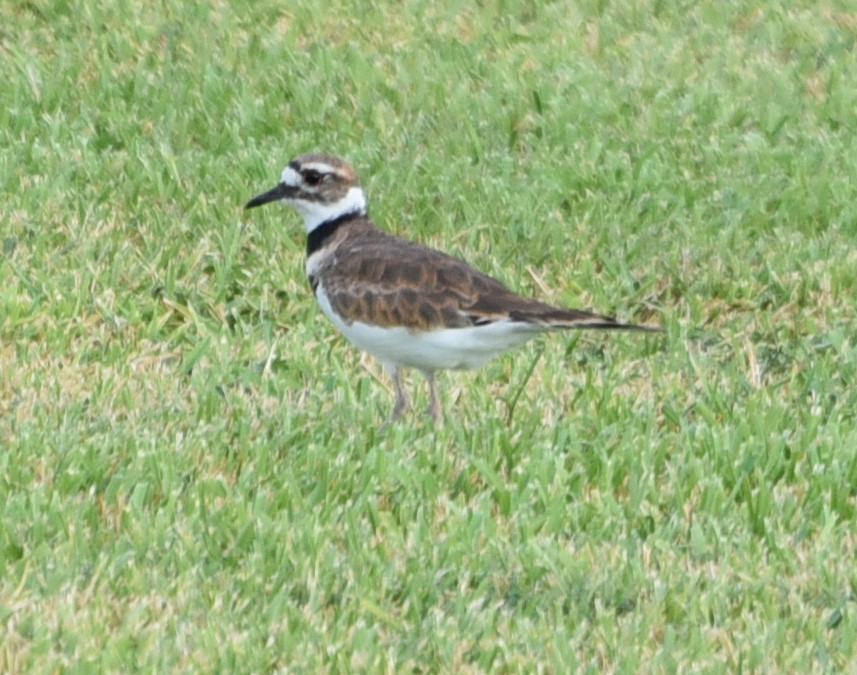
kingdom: Animalia
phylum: Chordata
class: Aves
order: Charadriiformes
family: Charadriidae
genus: Charadrius
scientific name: Charadrius vociferus
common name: Killdeer
